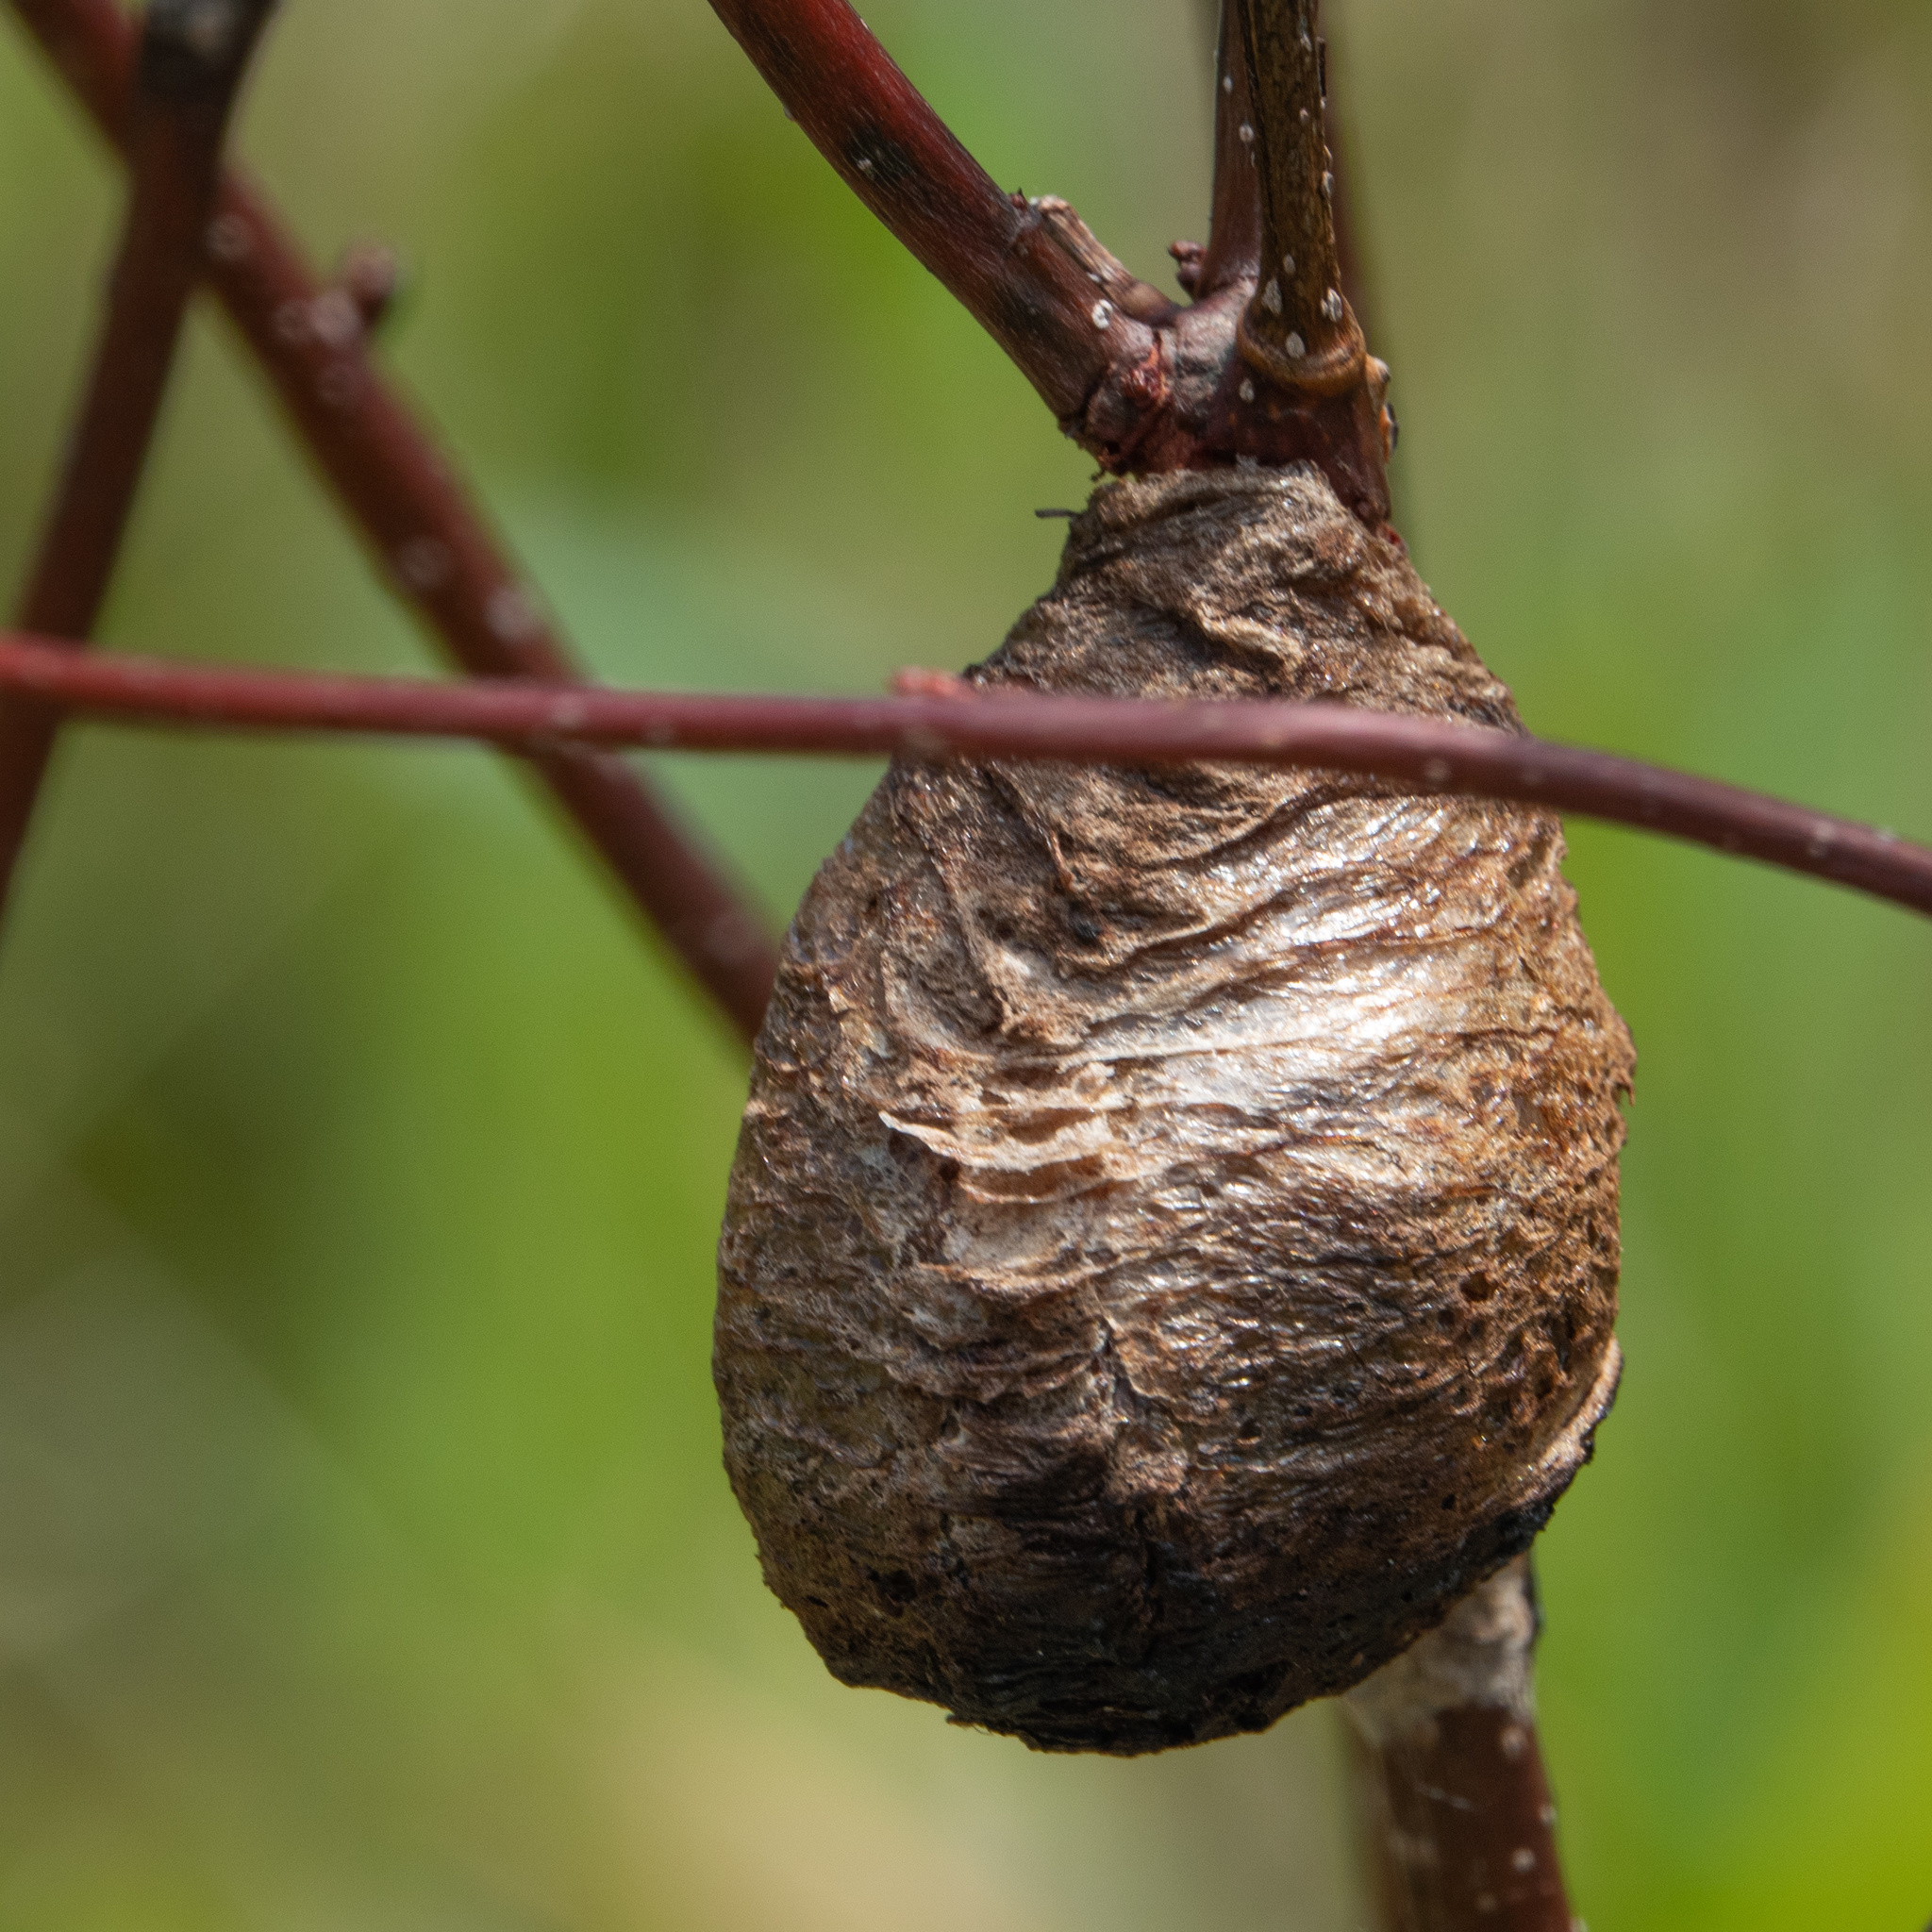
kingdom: Animalia
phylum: Arthropoda
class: Insecta
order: Mantodea
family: Mantidae
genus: Tenodera
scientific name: Tenodera sinensis
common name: Chinese mantis
